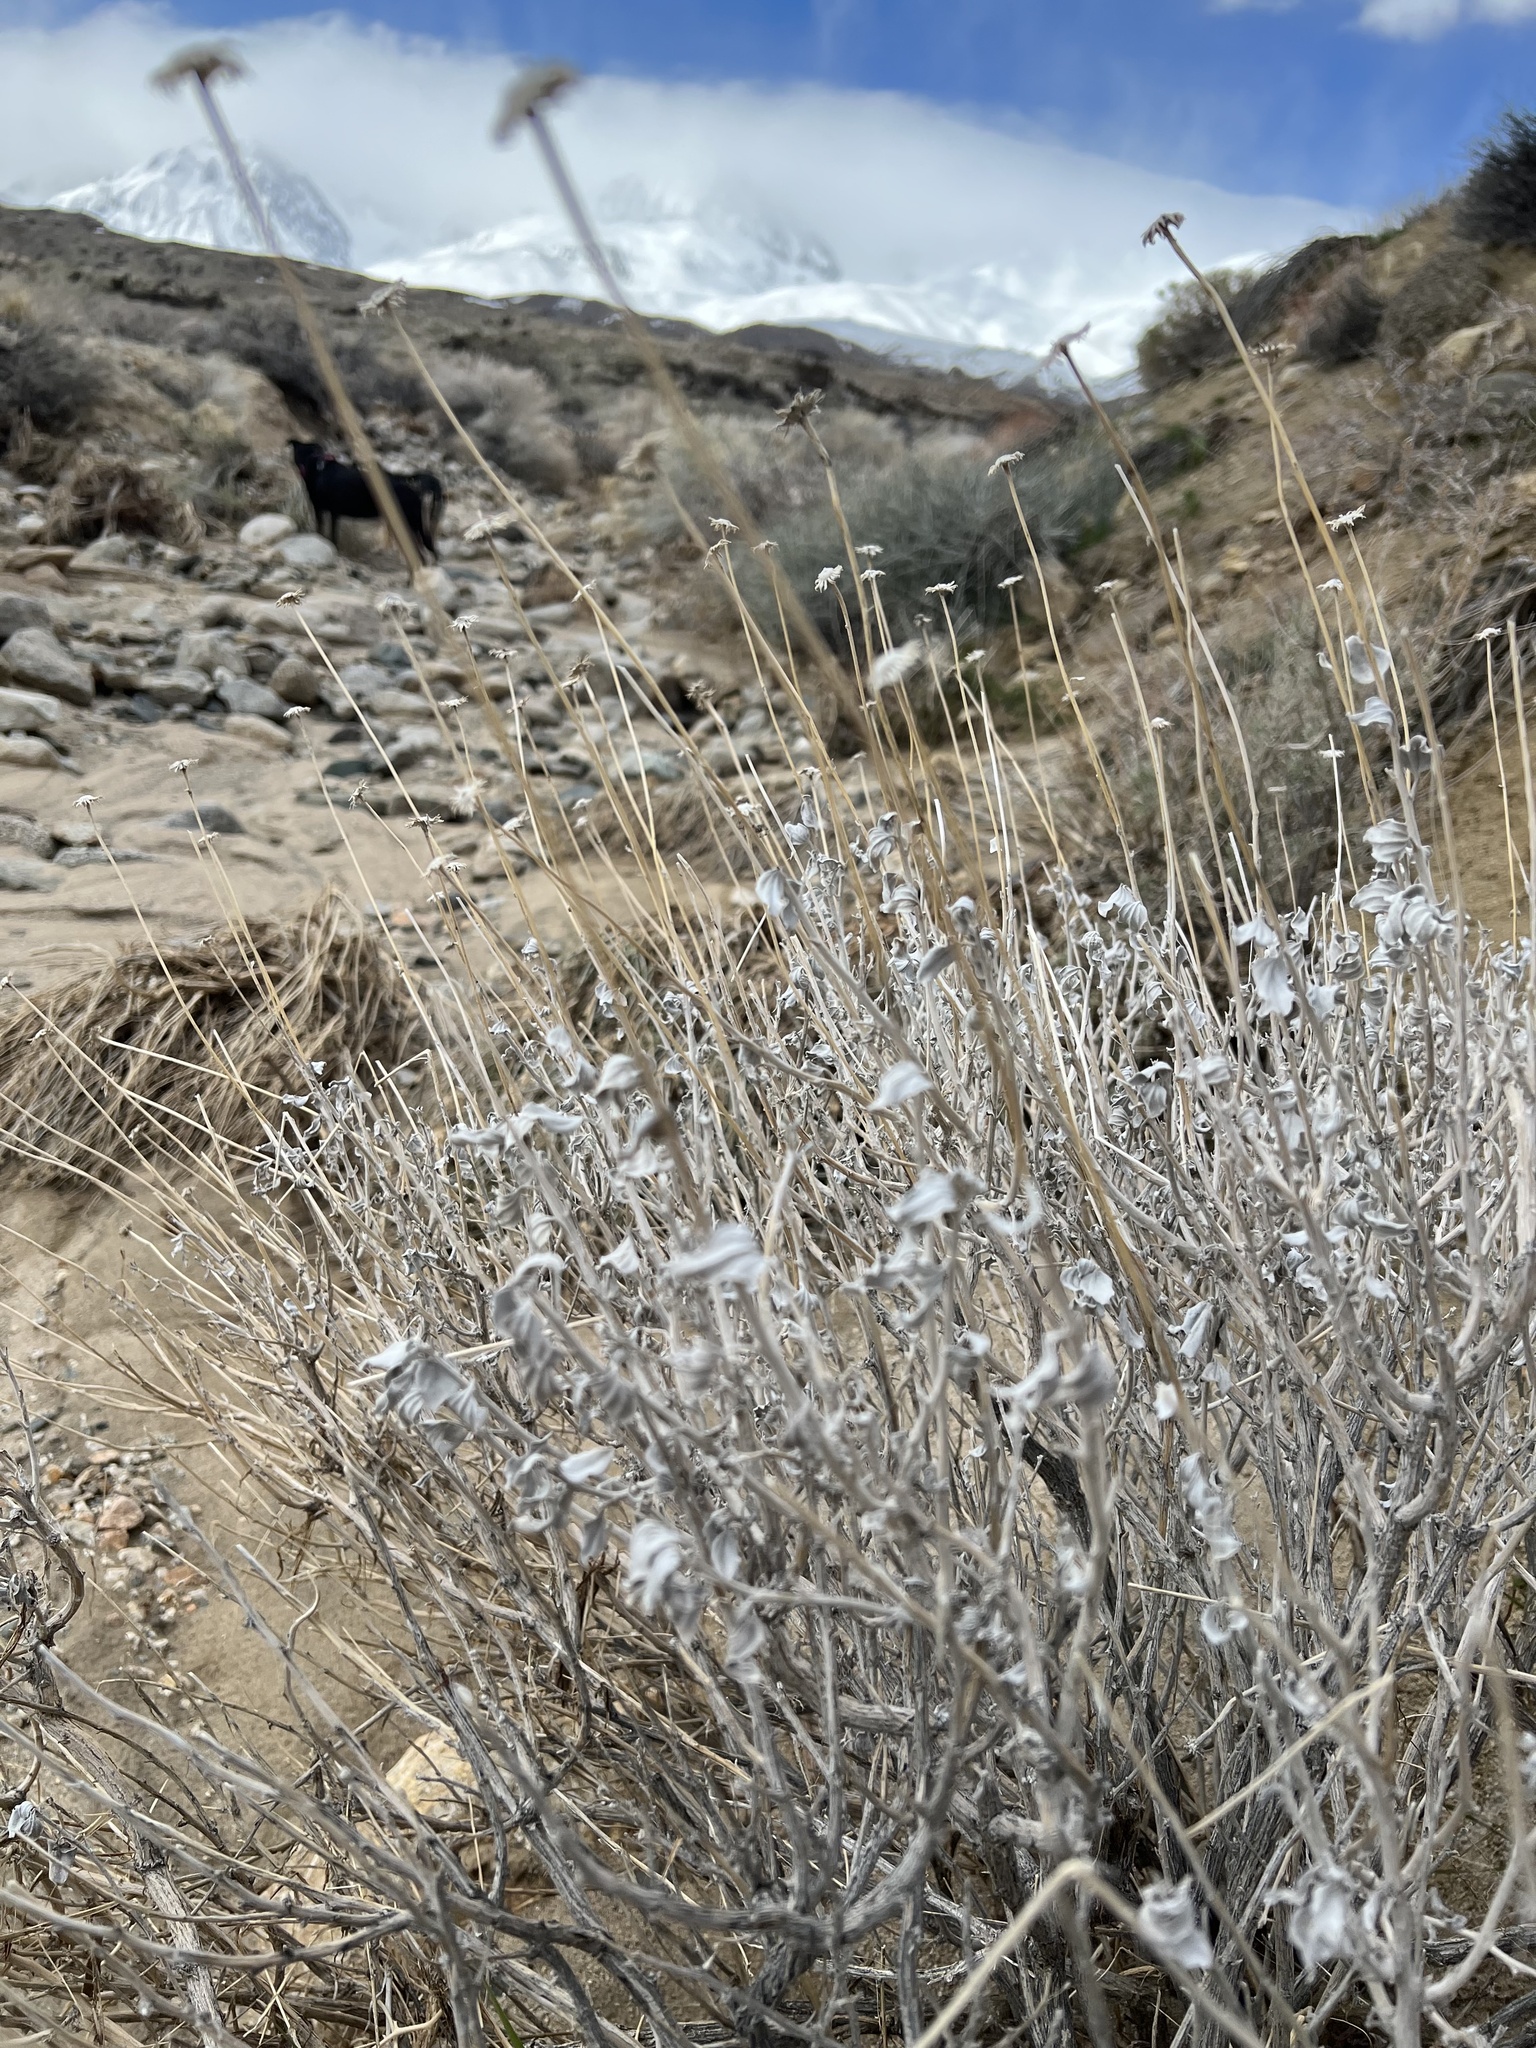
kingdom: Plantae
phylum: Tracheophyta
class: Magnoliopsida
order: Asterales
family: Asteraceae
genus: Encelia
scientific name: Encelia actoni
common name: Acton encelia
